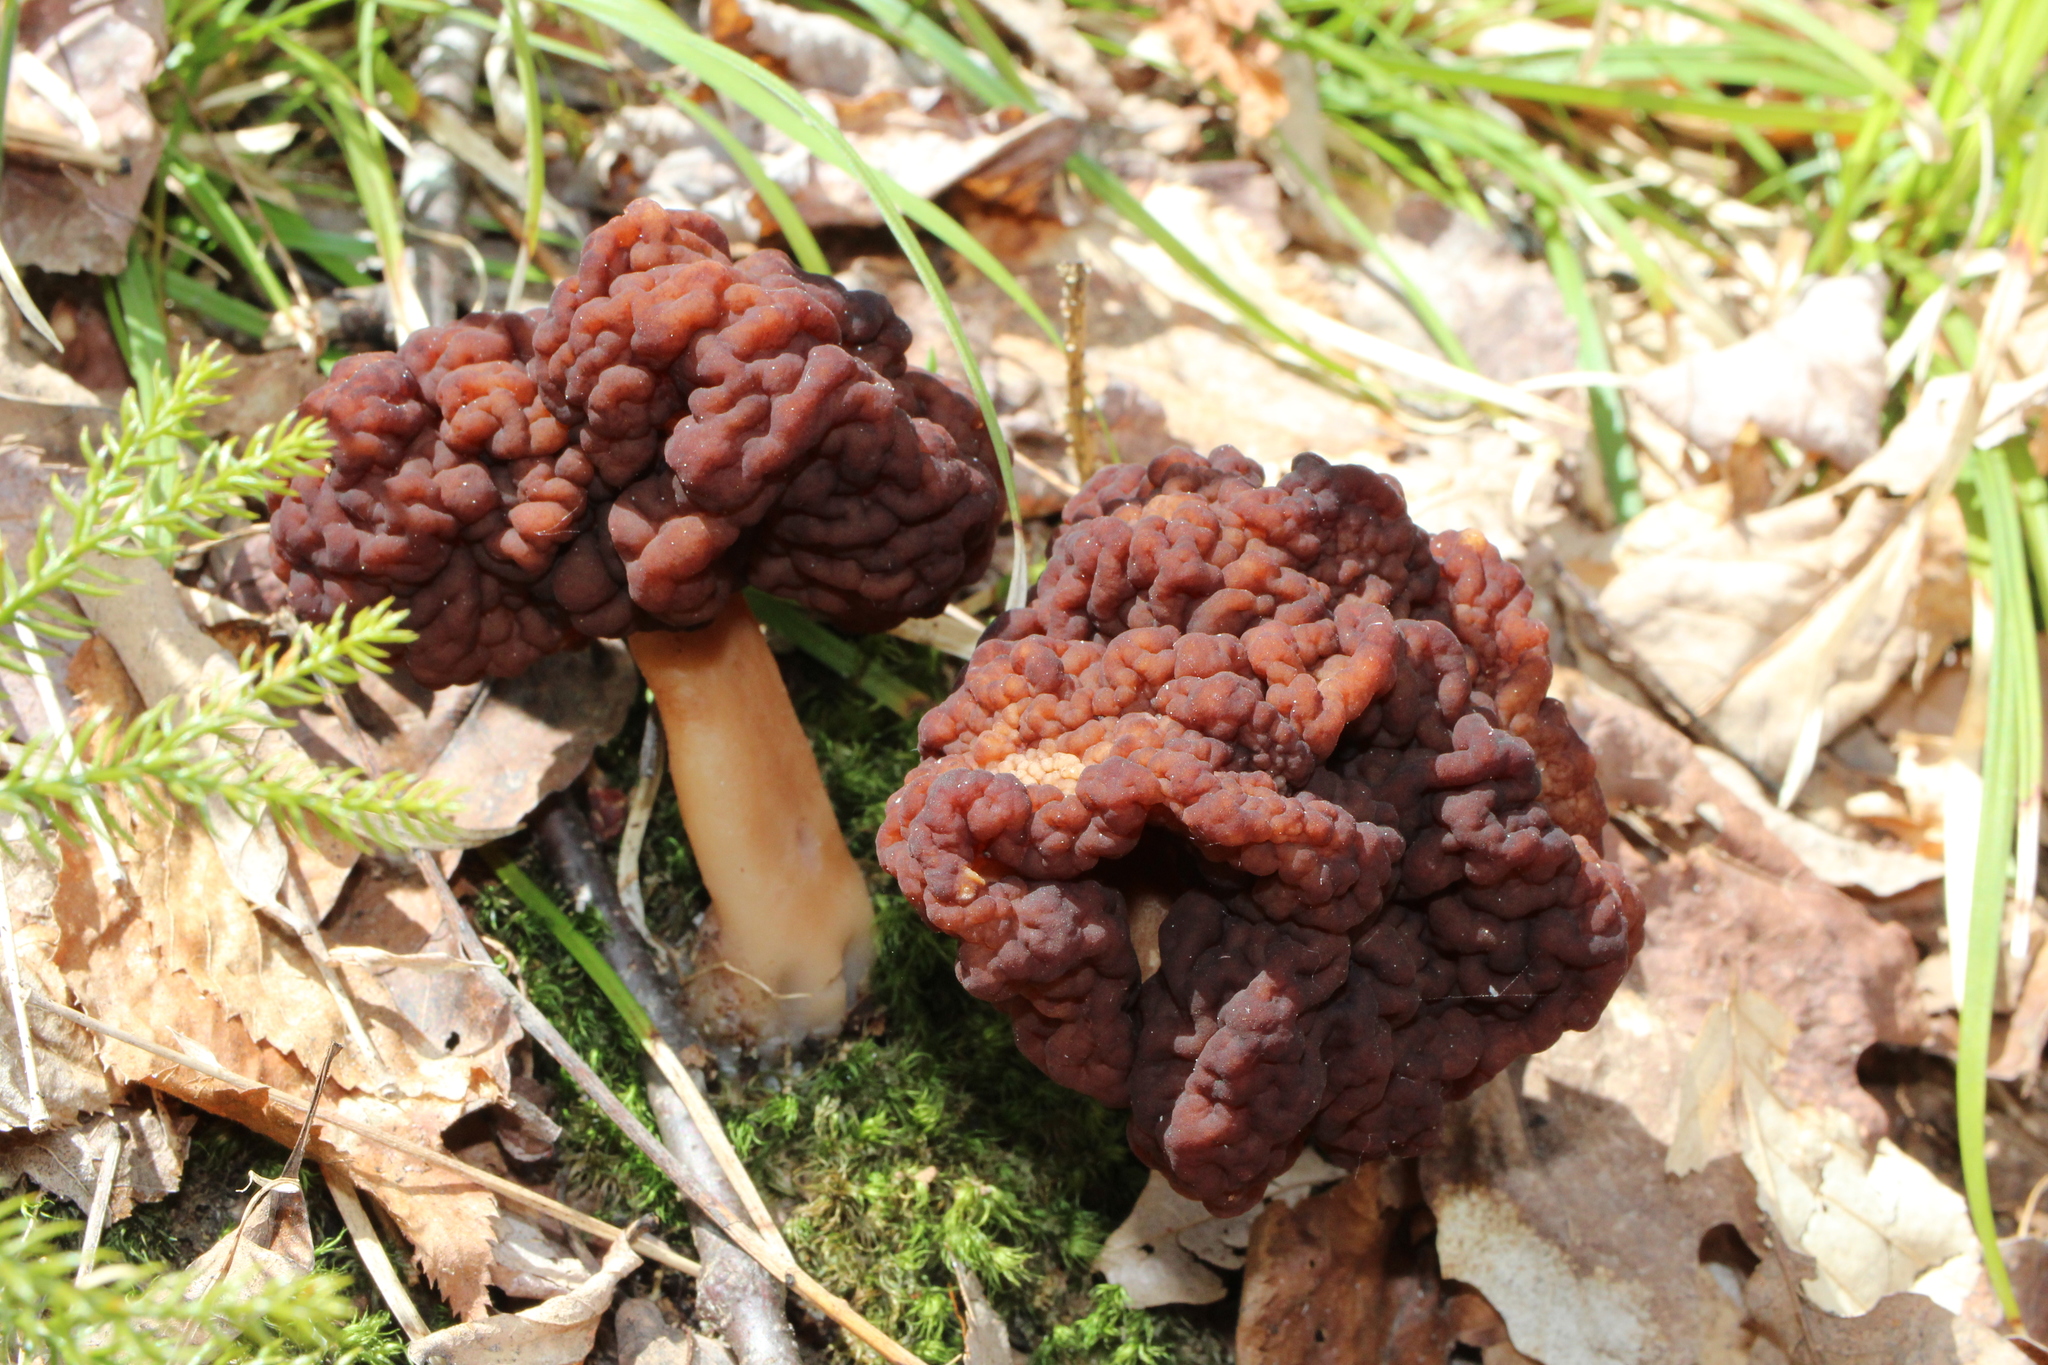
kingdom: Fungi
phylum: Ascomycota
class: Pezizomycetes
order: Pezizales
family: Discinaceae
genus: Gyromitra
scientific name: Gyromitra esculenta
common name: False morel
